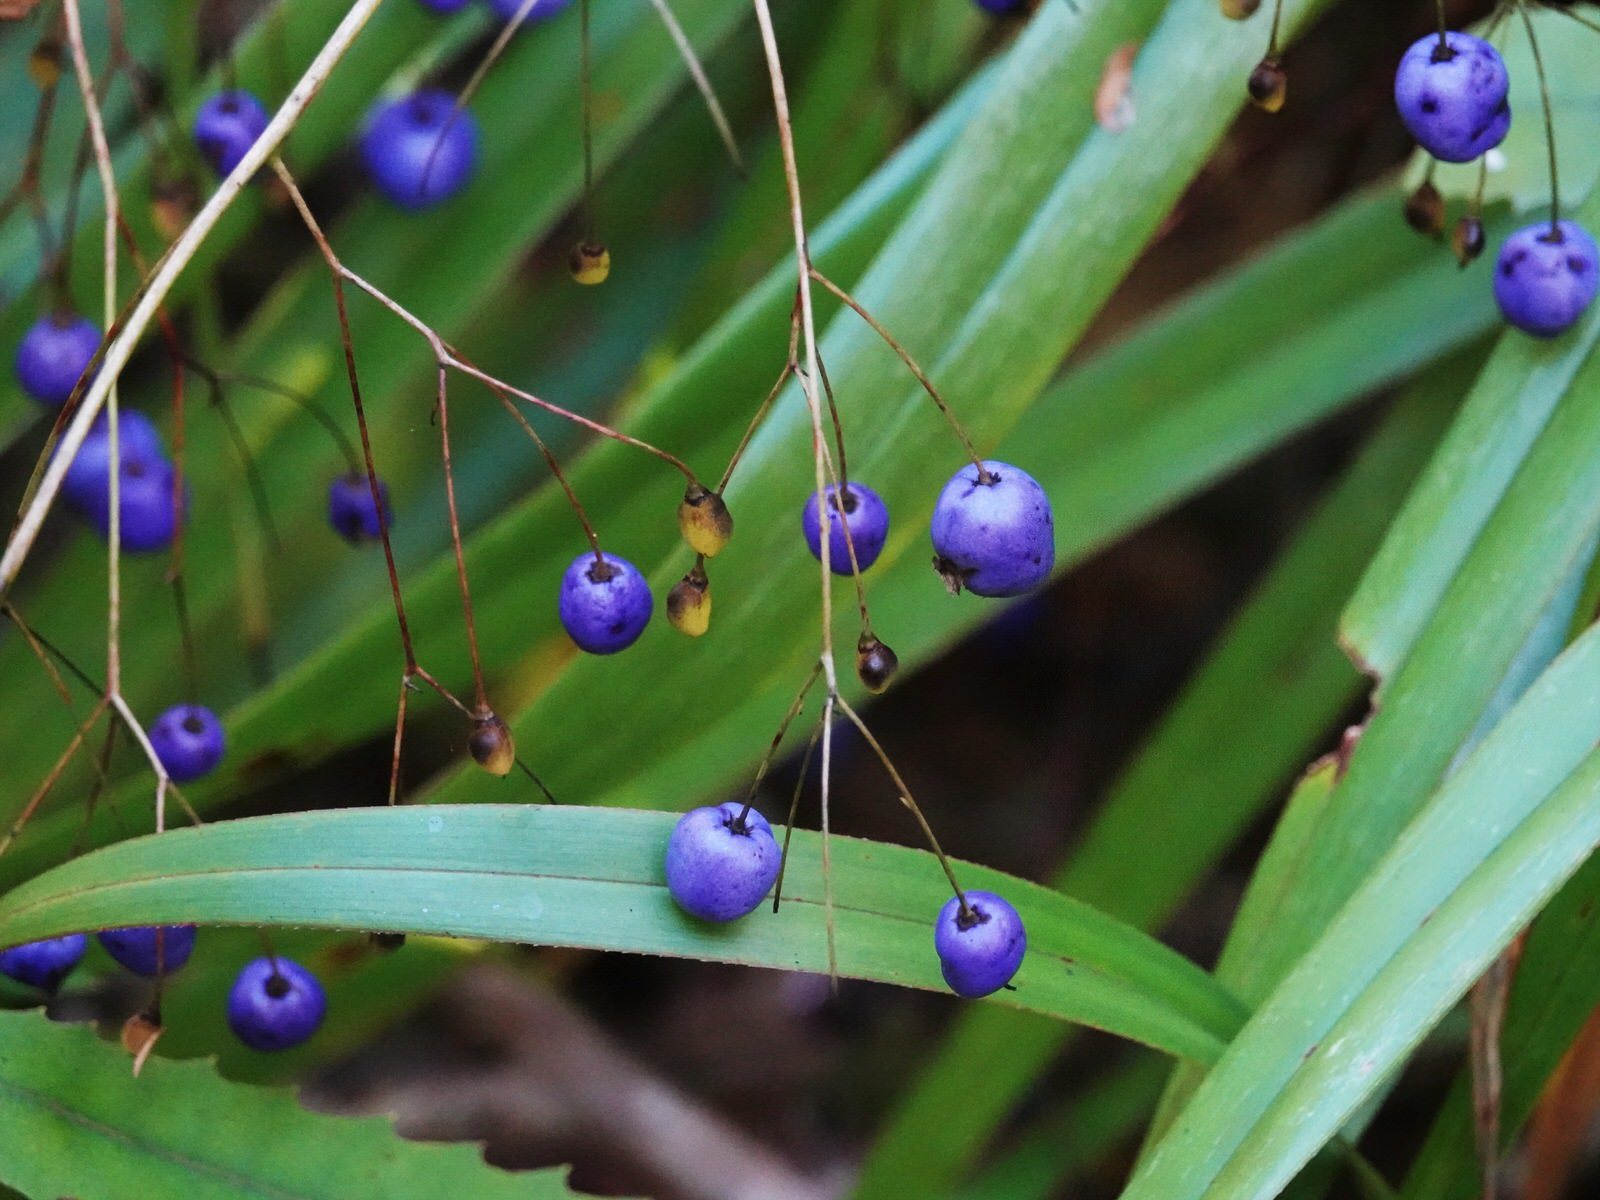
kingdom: Plantae
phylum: Tracheophyta
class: Liliopsida
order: Asparagales
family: Asphodelaceae
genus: Dianella
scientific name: Dianella nigra
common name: New zealand-blueberry
